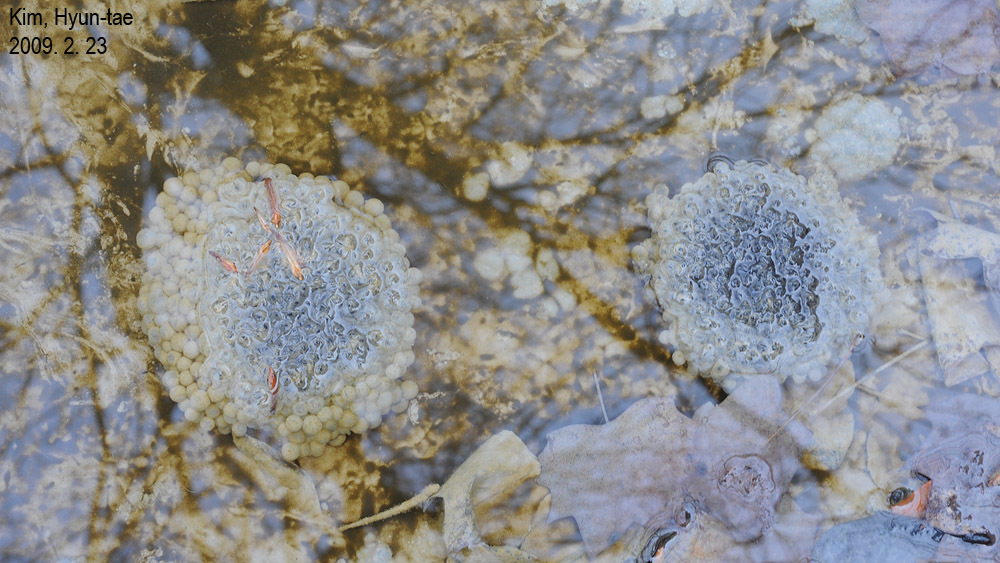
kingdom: Animalia
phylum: Chordata
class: Amphibia
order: Anura
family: Ranidae
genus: Rana
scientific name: Rana uenoi
